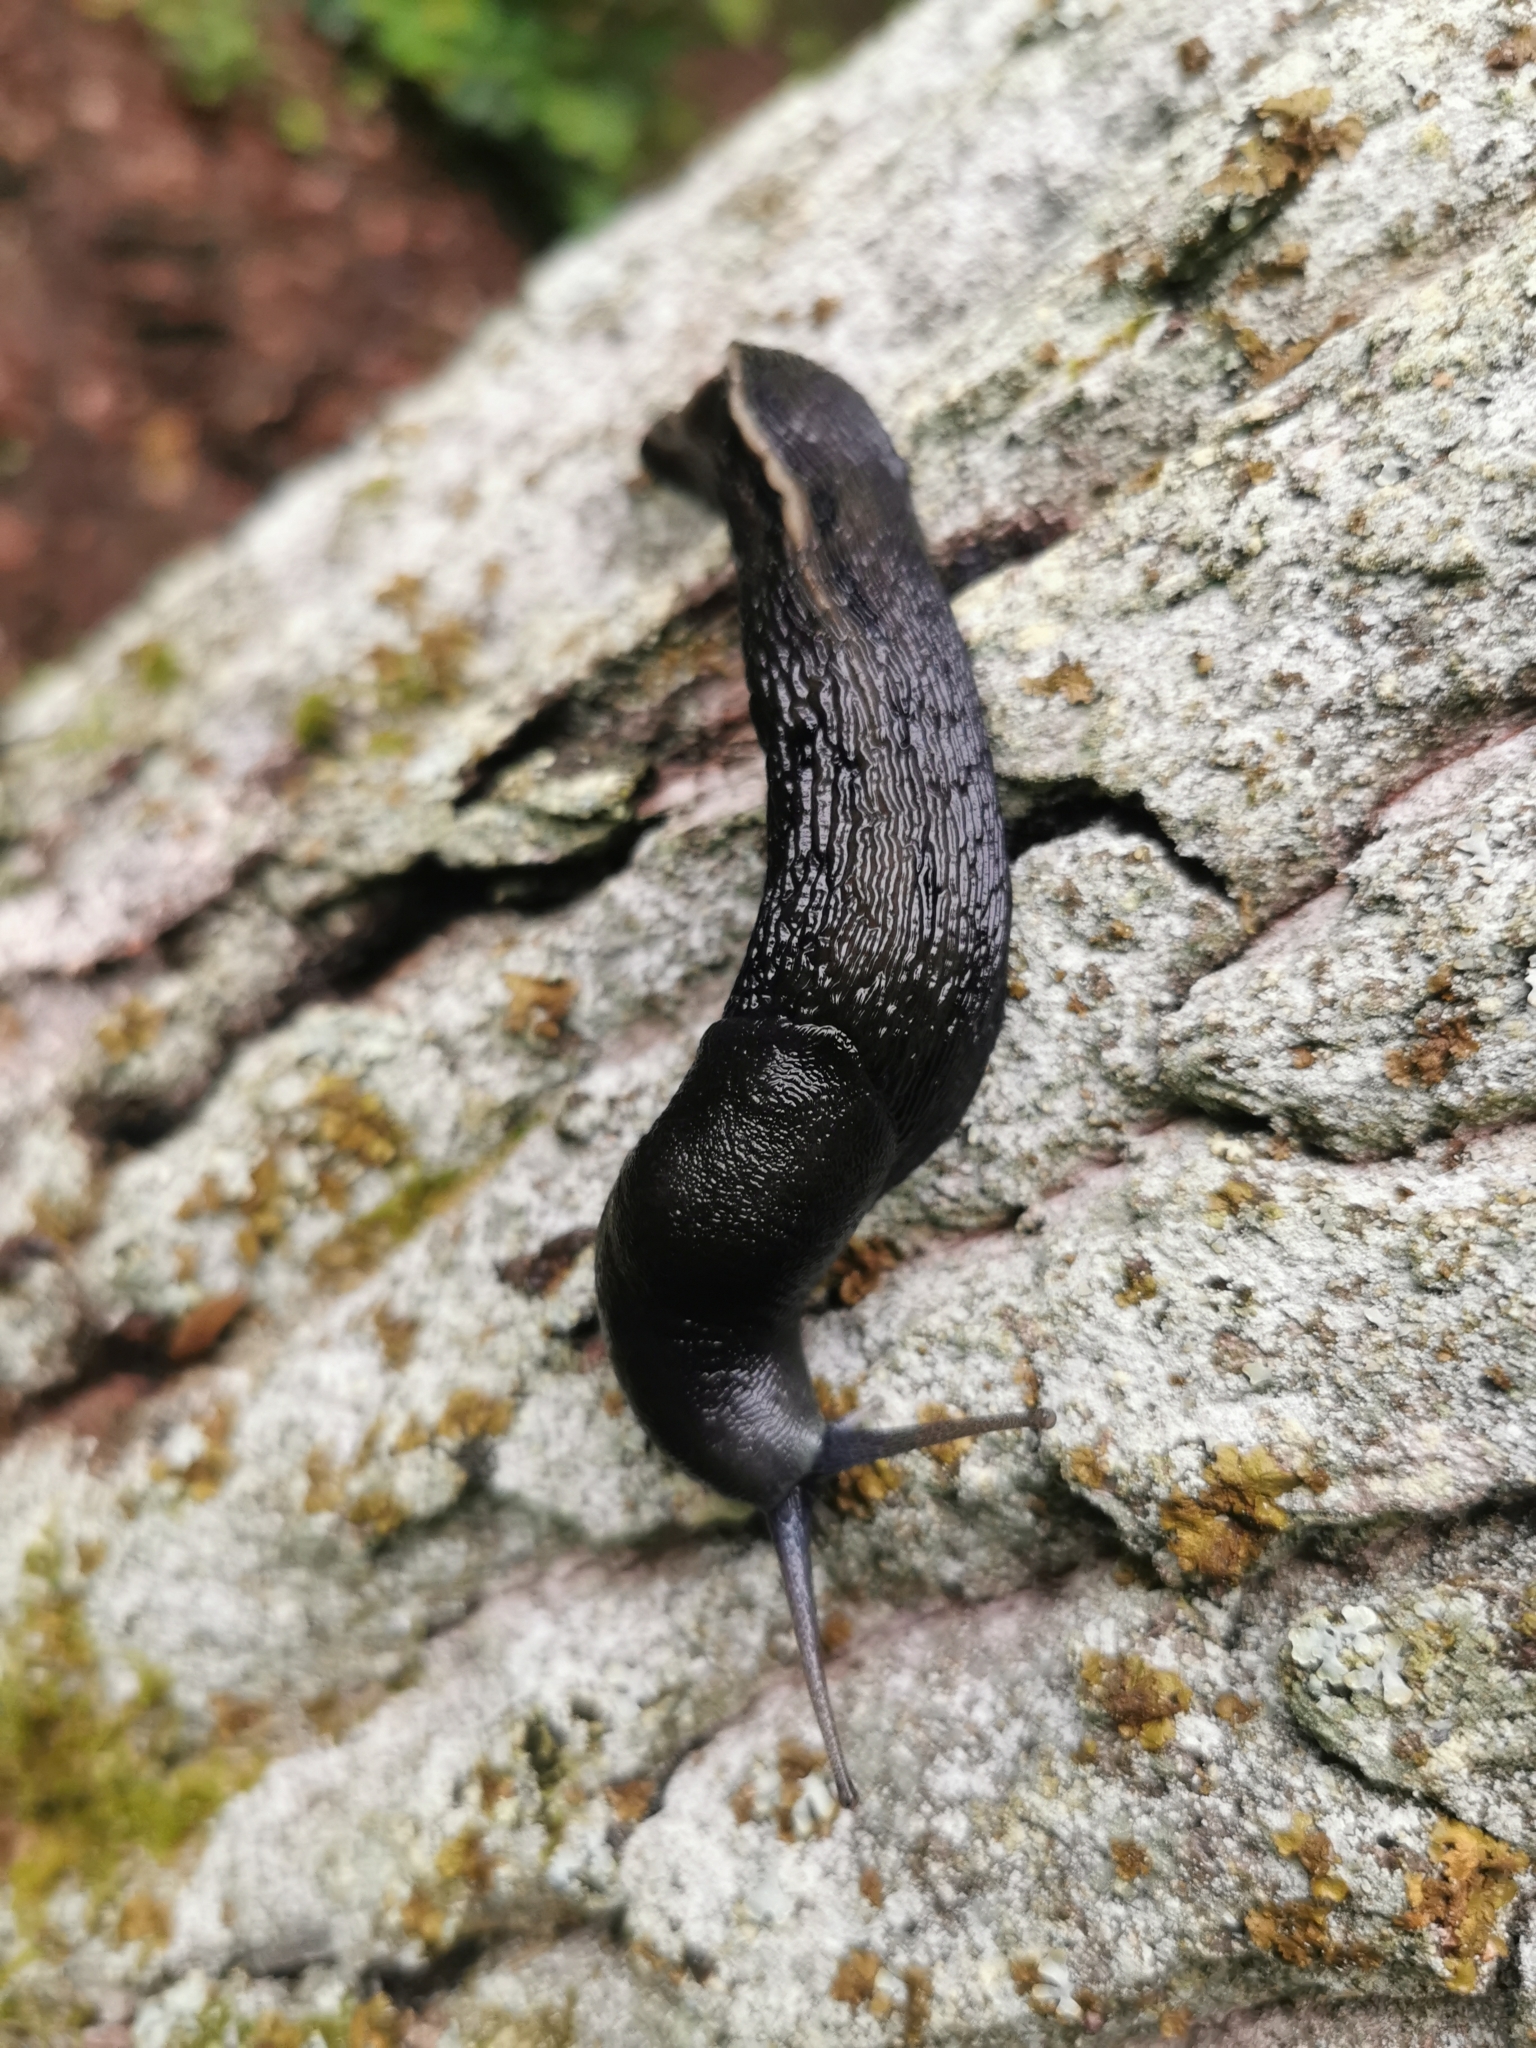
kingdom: Animalia
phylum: Mollusca
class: Gastropoda
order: Stylommatophora
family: Limacidae
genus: Limax
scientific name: Limax cinereoniger
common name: Ash-black slug
